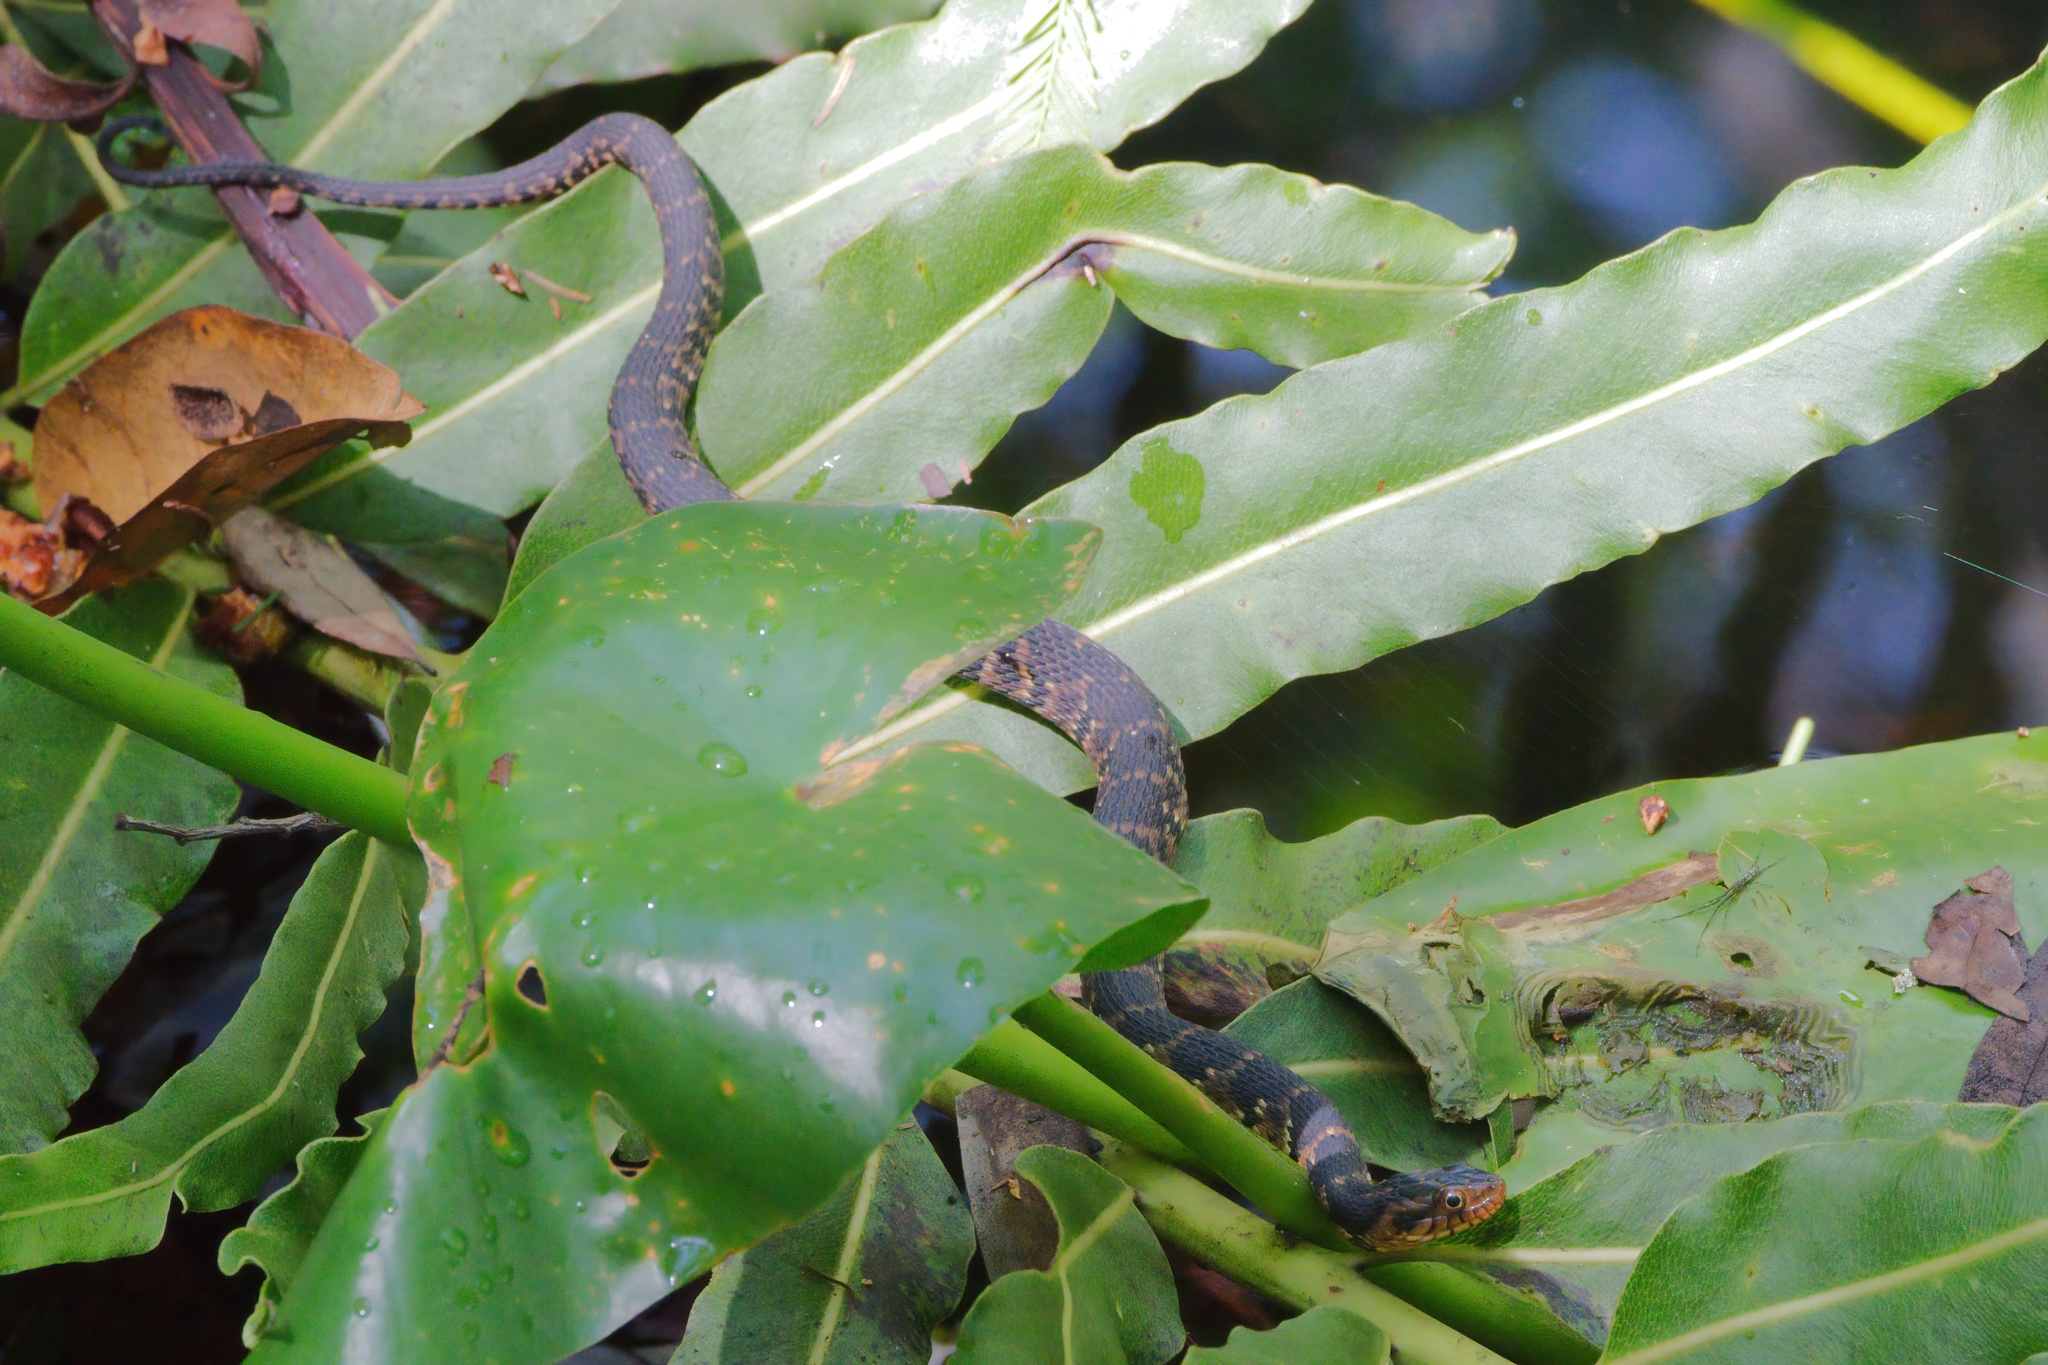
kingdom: Animalia
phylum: Chordata
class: Squamata
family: Colubridae
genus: Nerodia
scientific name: Nerodia fasciata
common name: Southern water snake
